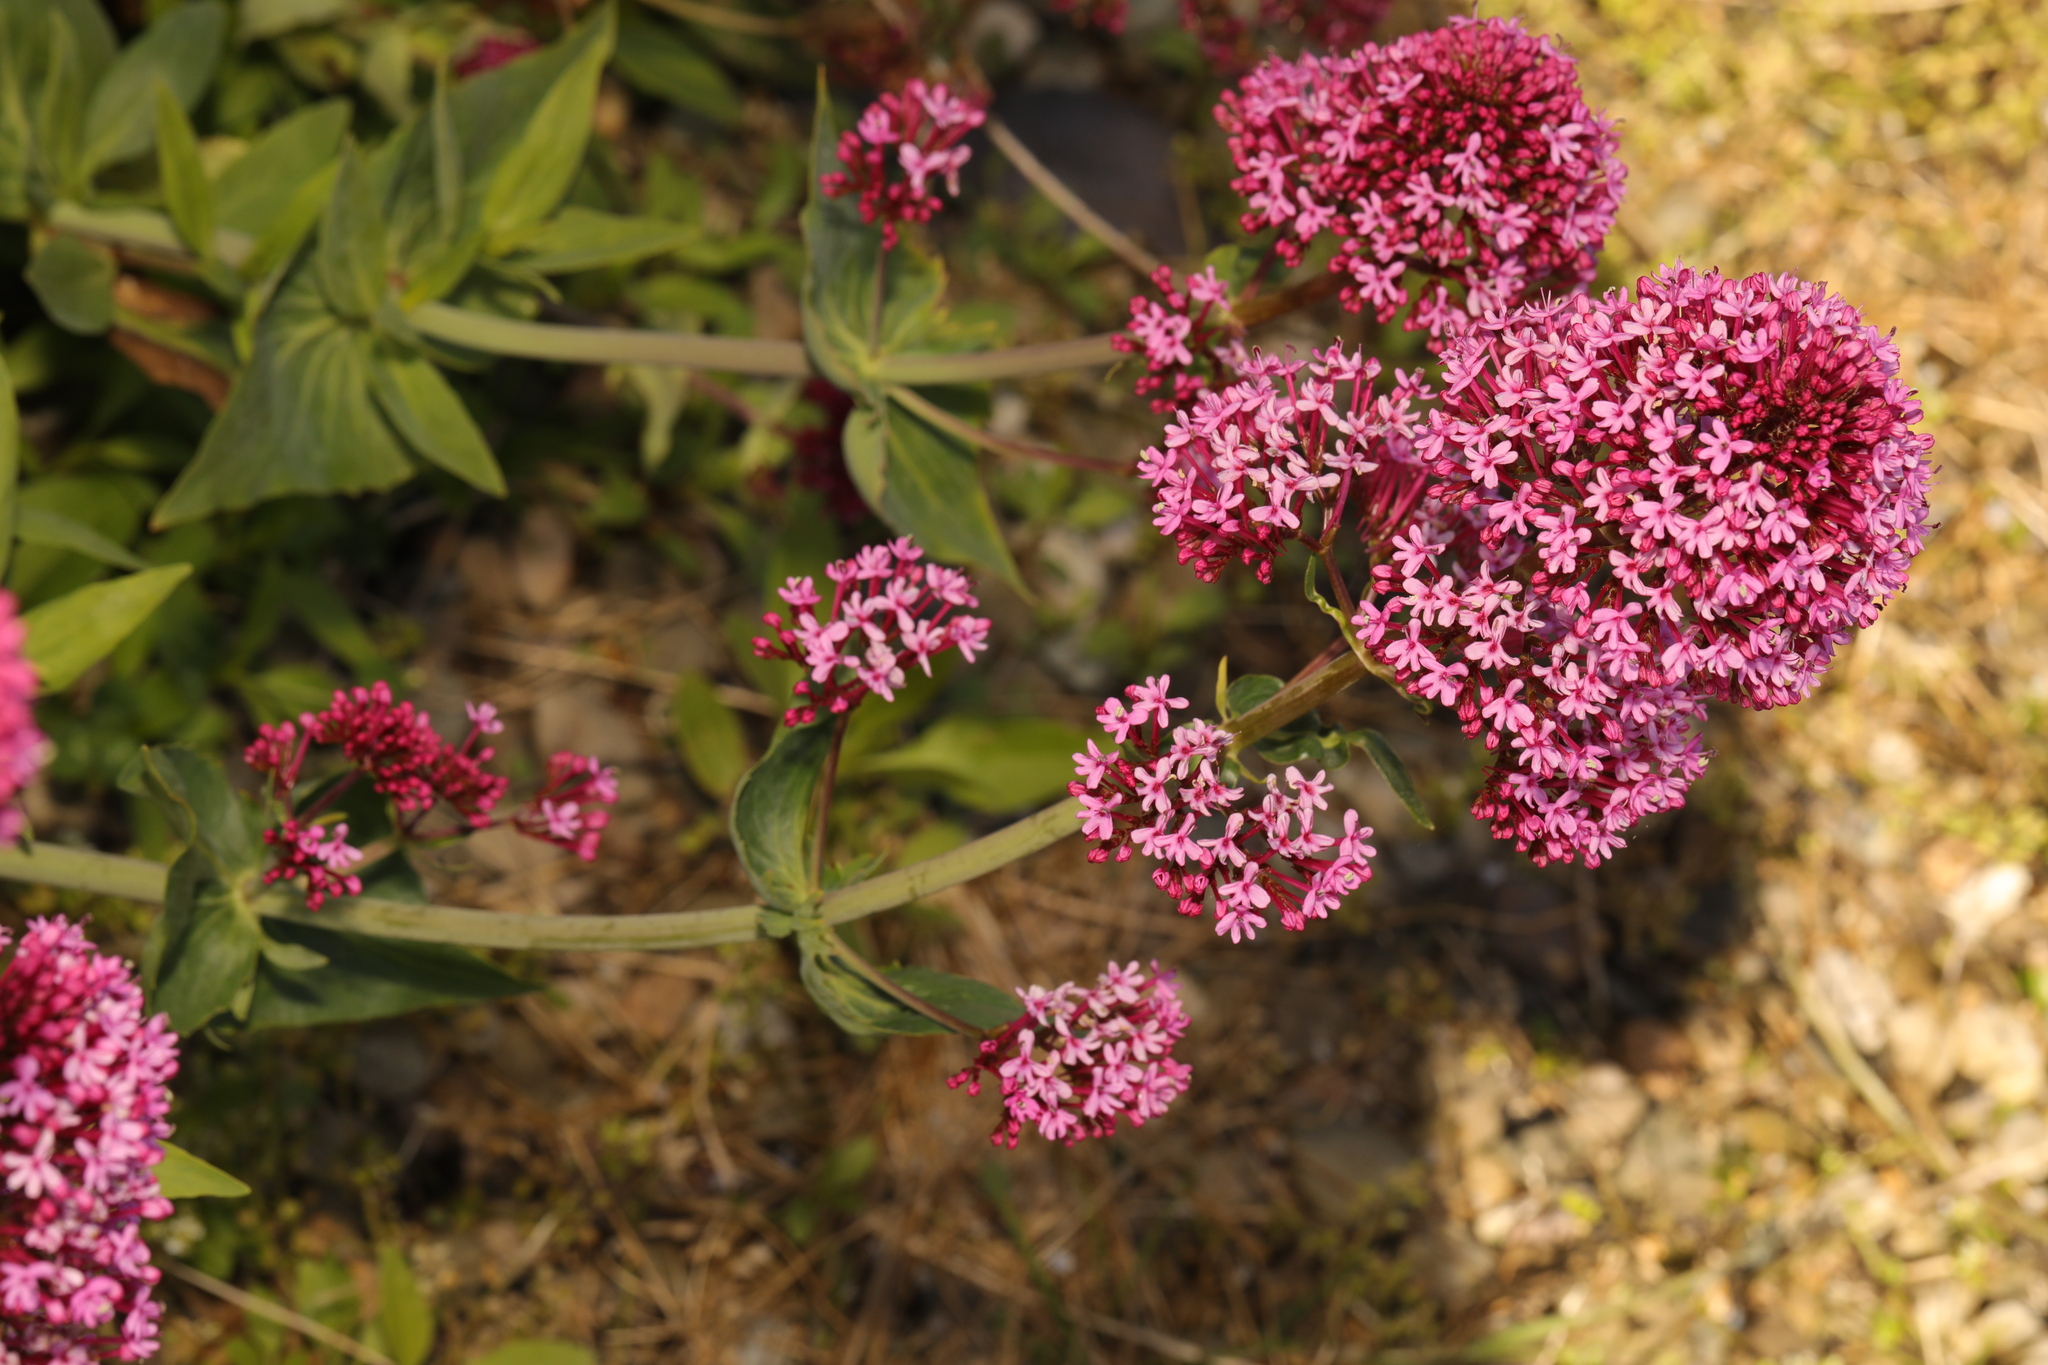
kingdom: Plantae
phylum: Tracheophyta
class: Magnoliopsida
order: Dipsacales
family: Caprifoliaceae
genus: Centranthus
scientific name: Centranthus ruber
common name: Red valerian
